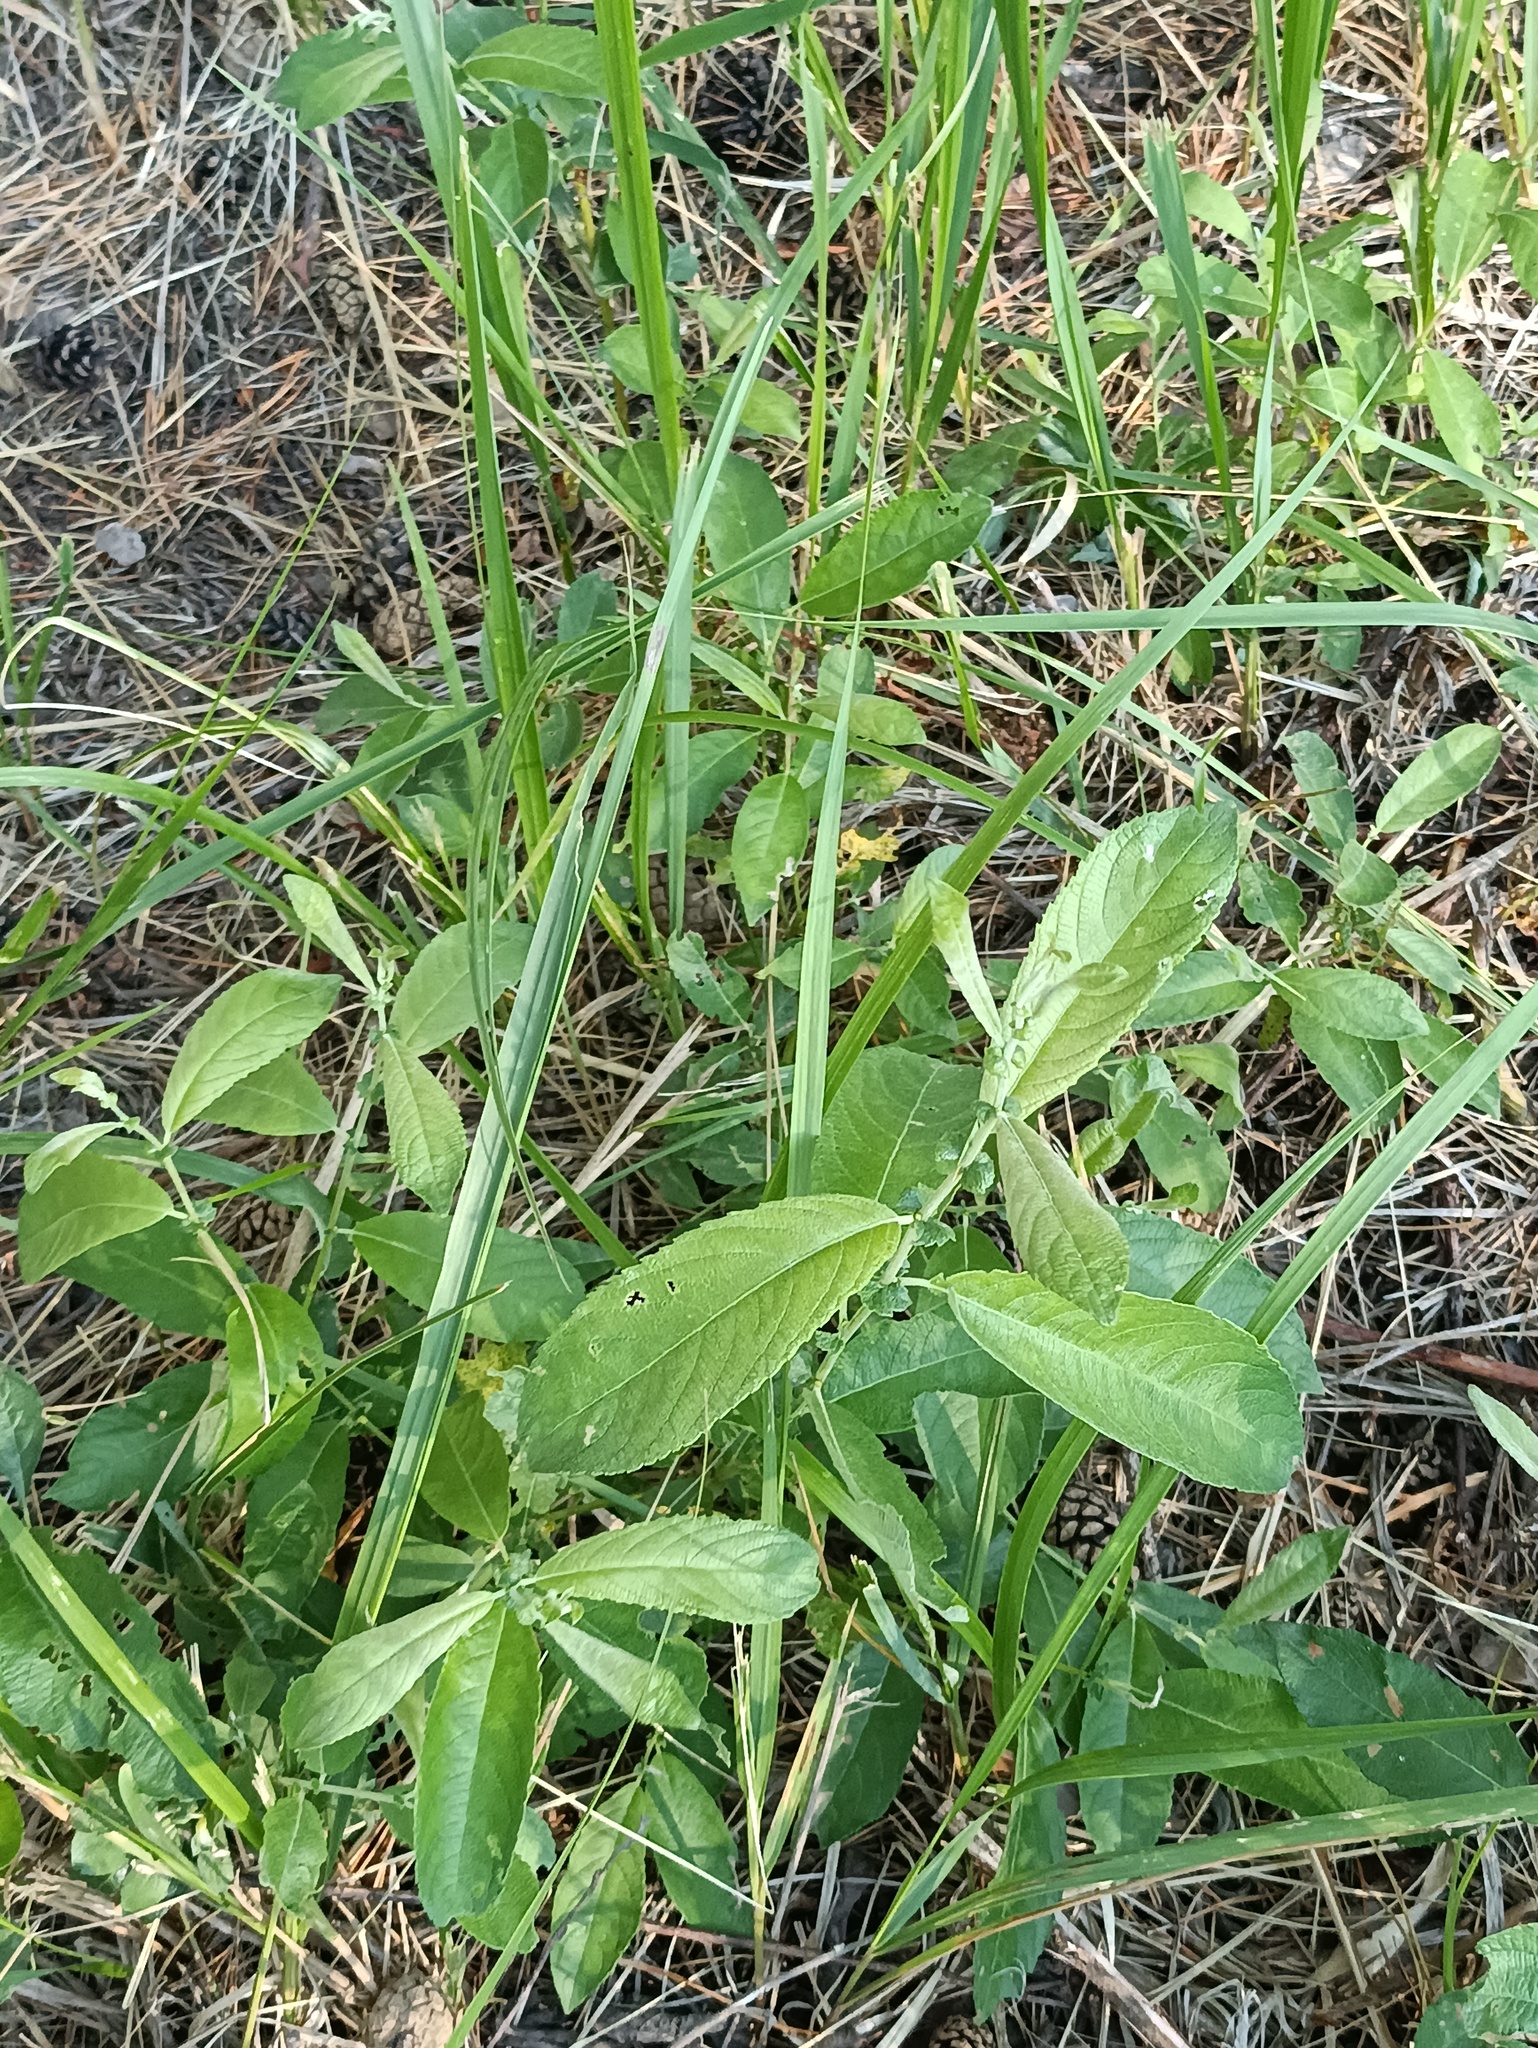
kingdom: Plantae
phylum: Tracheophyta
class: Magnoliopsida
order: Malpighiales
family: Salicaceae
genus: Salix
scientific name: Salix cinerea
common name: Common sallow
